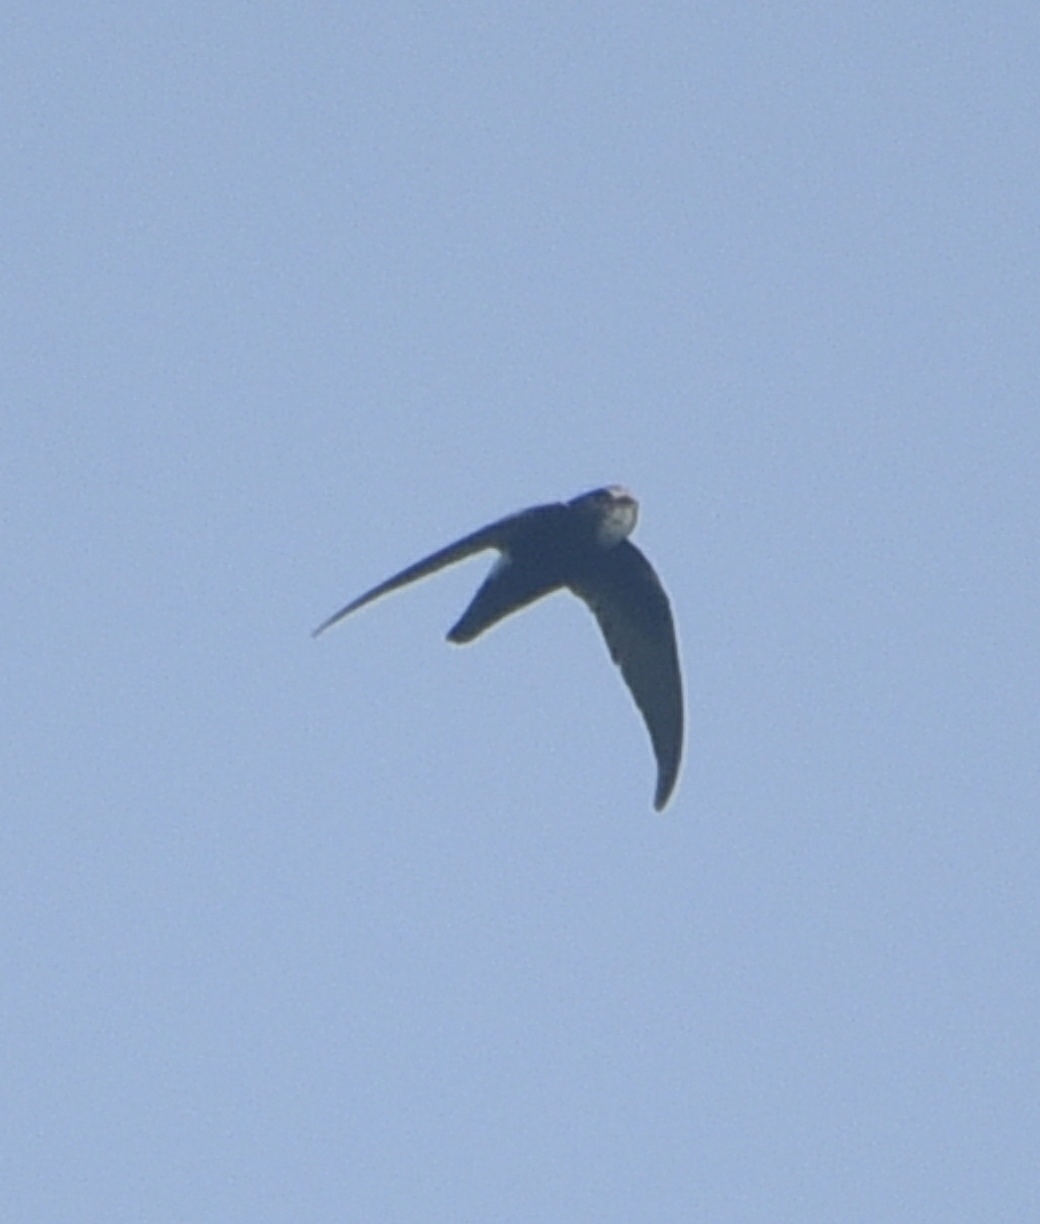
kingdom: Animalia
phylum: Chordata
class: Aves
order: Apodiformes
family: Apodidae
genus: Apus
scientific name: Apus affinis
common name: Little swift
